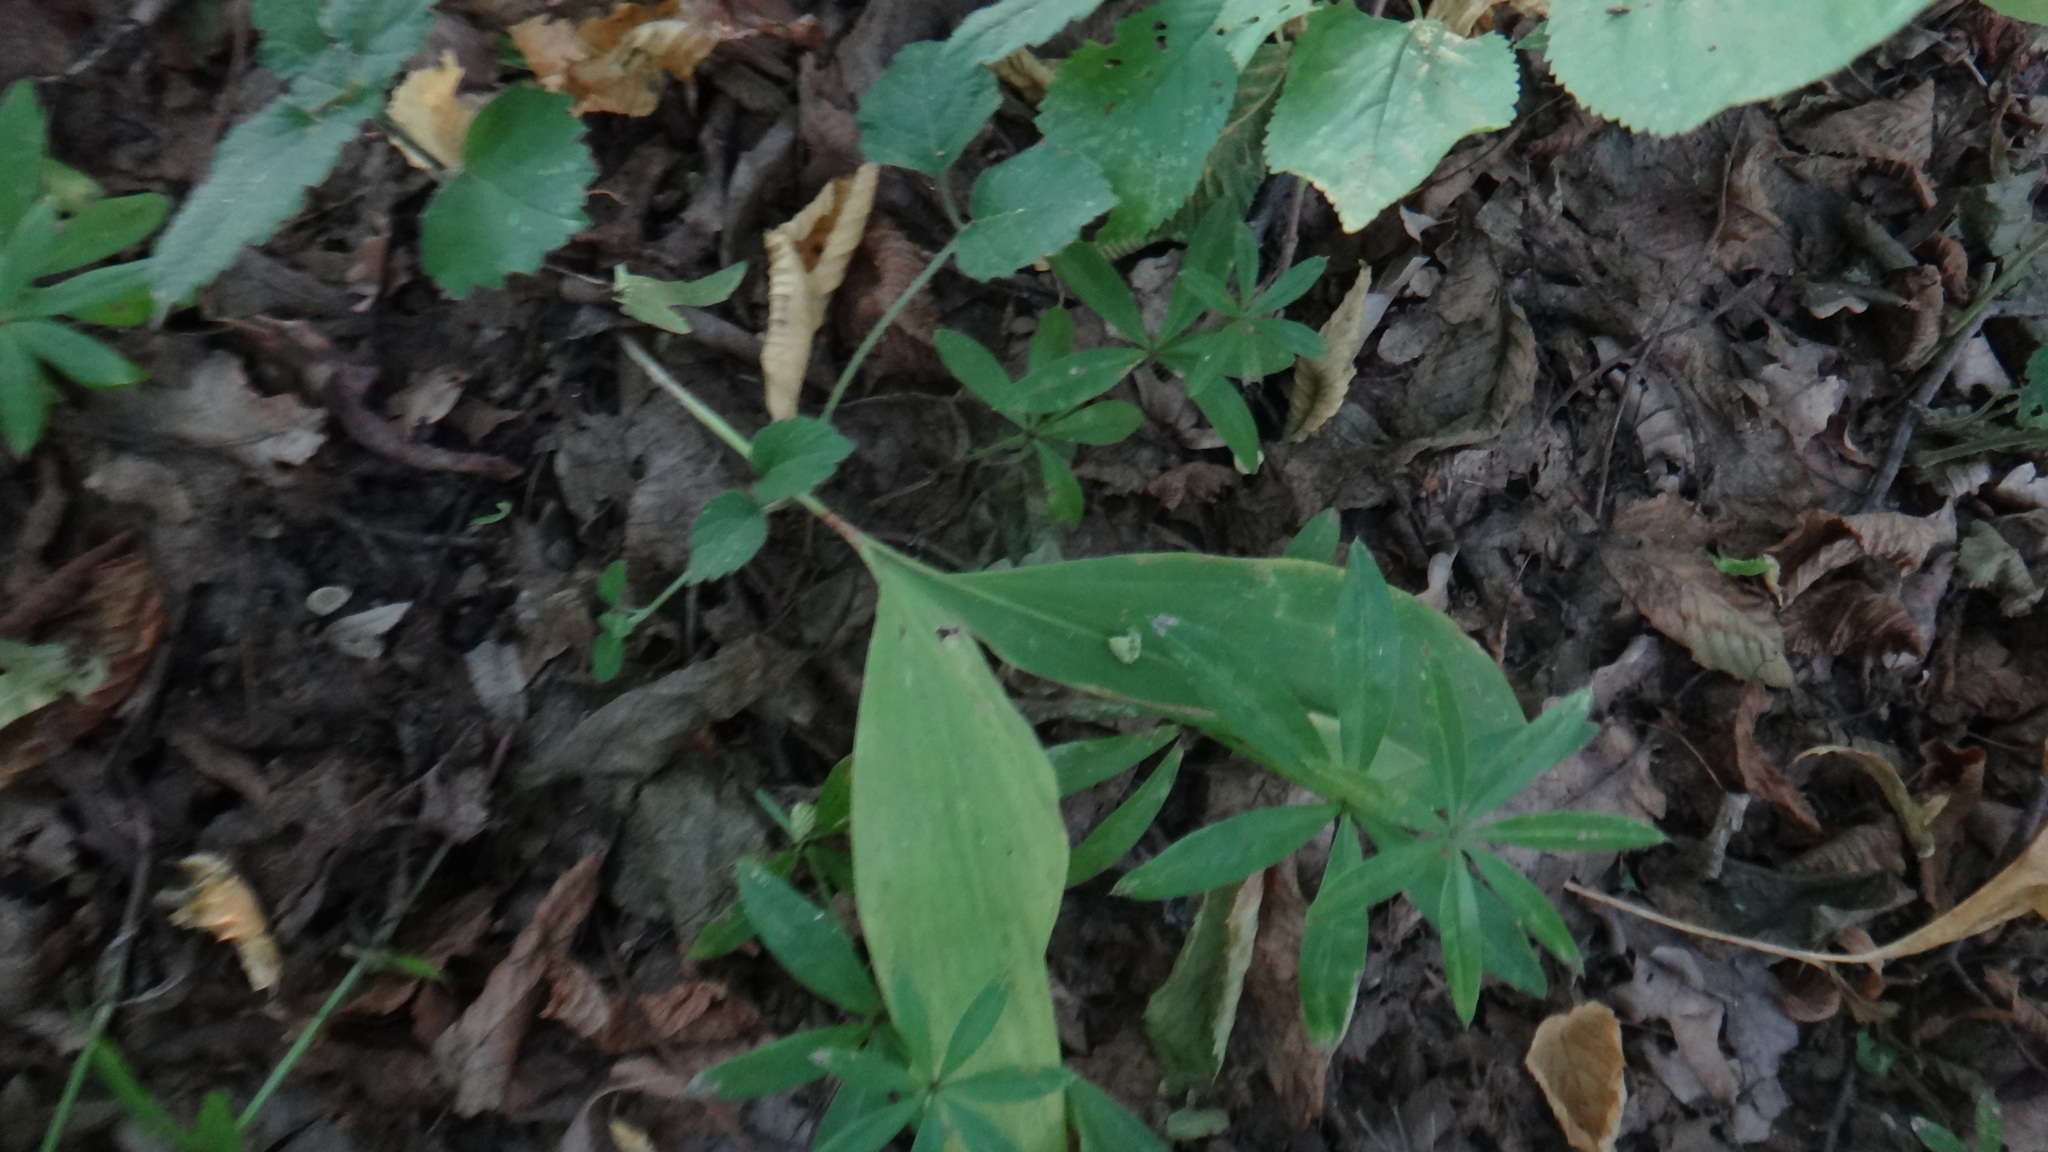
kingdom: Plantae
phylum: Tracheophyta
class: Liliopsida
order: Asparagales
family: Asparagaceae
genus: Convallaria
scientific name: Convallaria majalis
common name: Lily-of-the-valley
